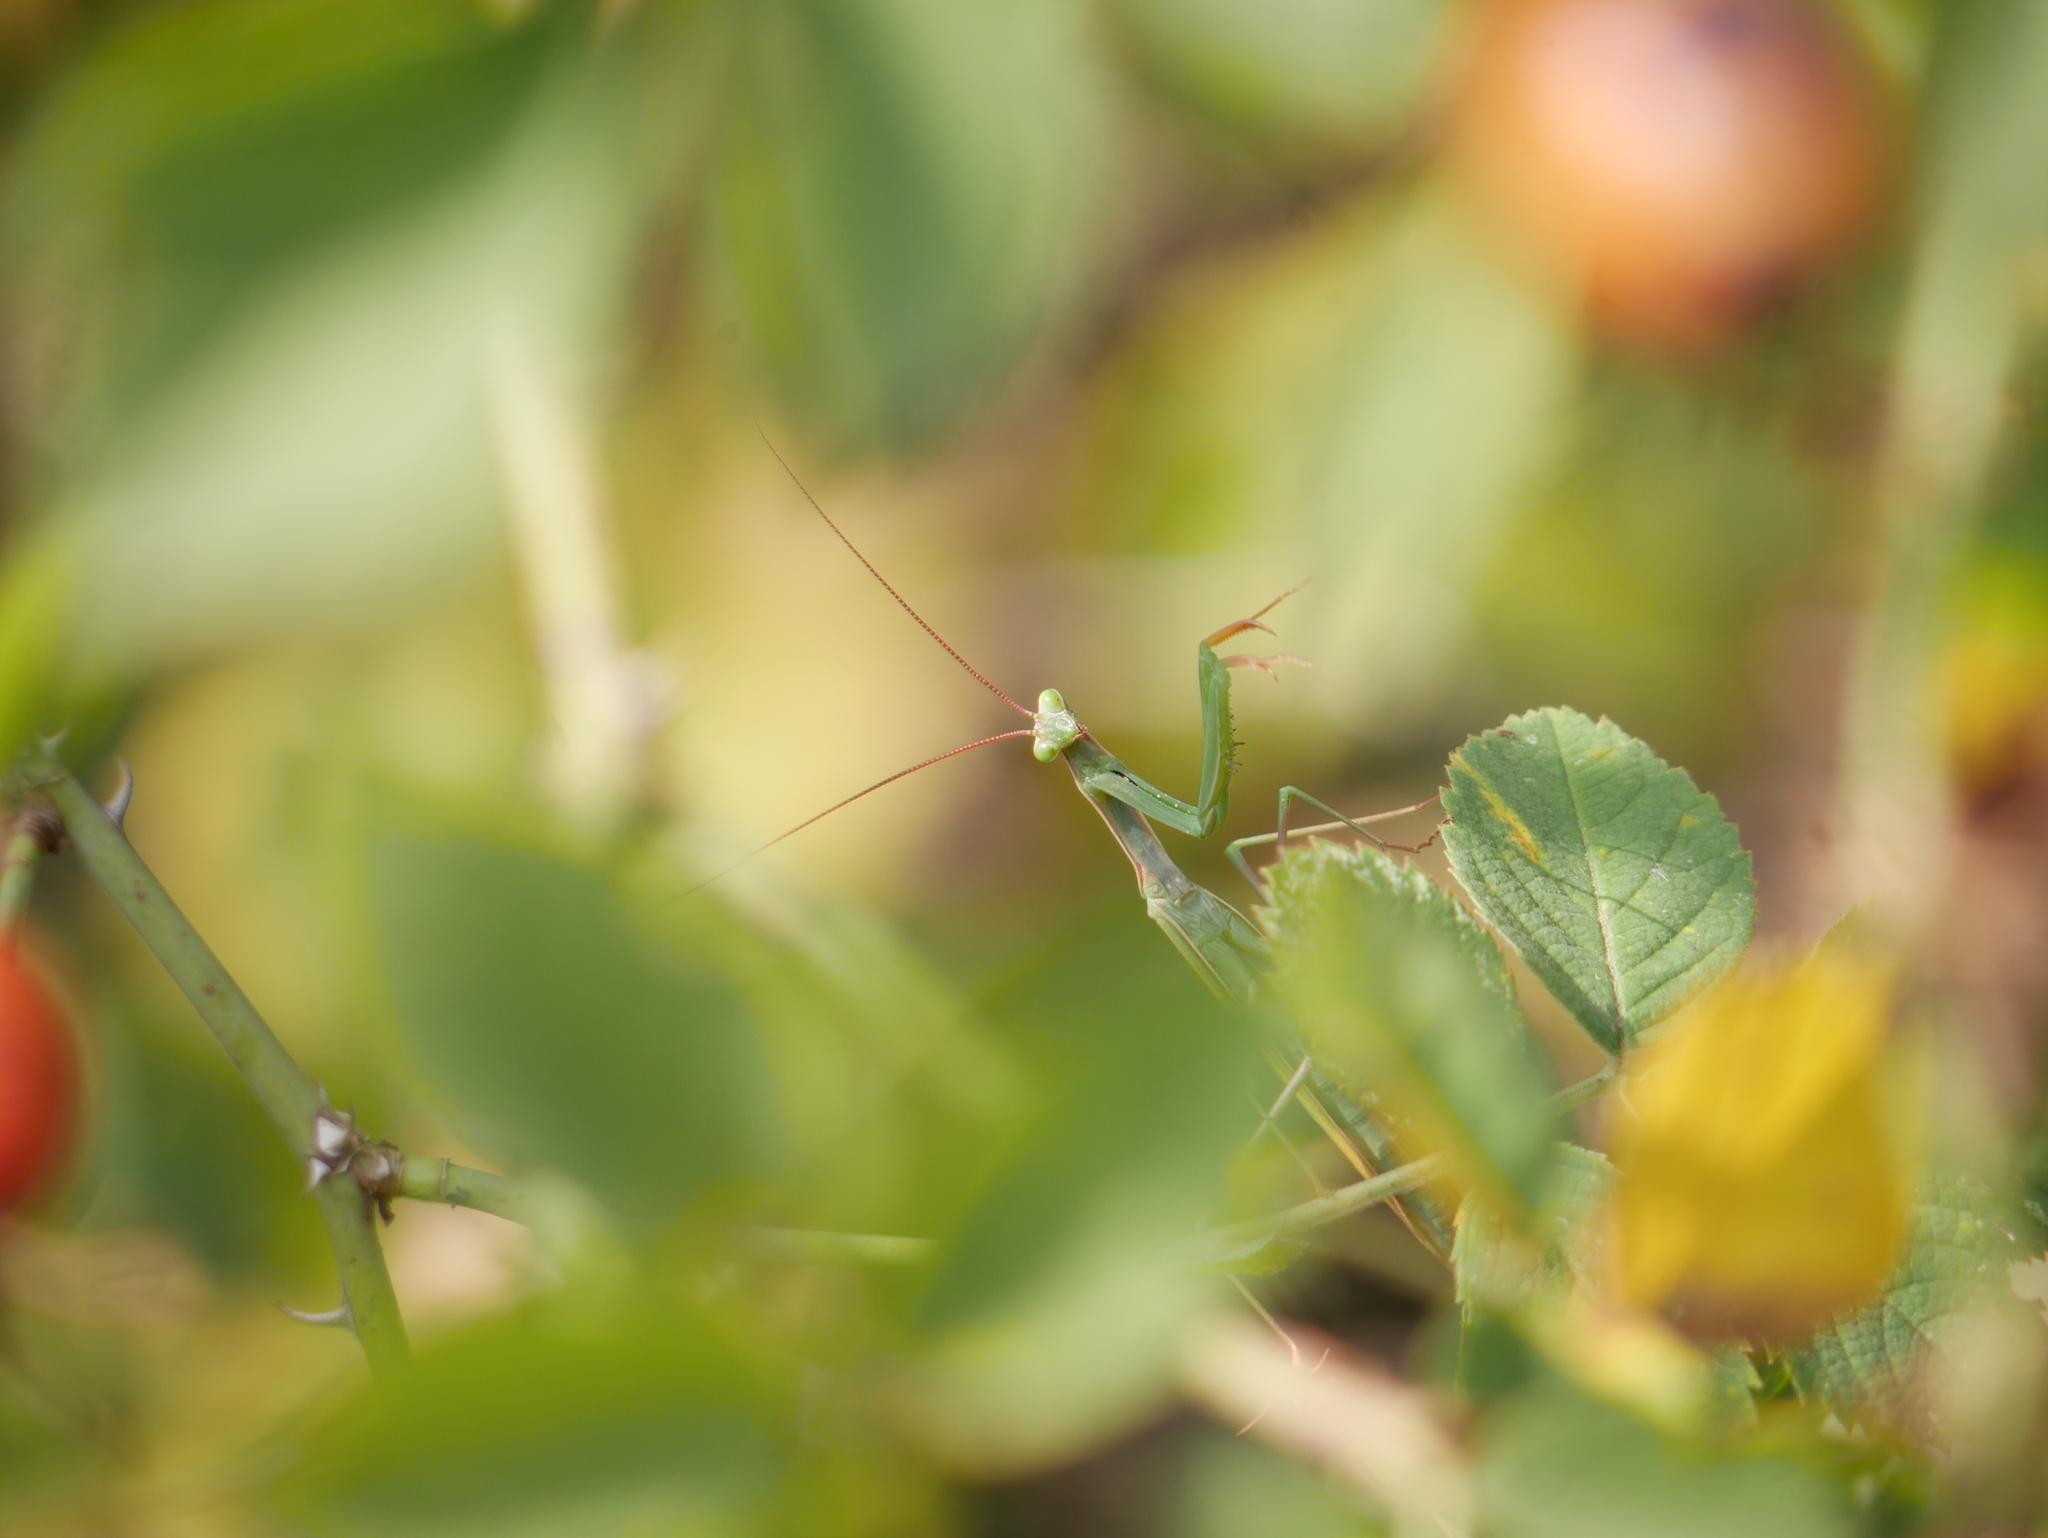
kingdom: Animalia
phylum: Arthropoda
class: Insecta
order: Mantodea
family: Mantidae
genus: Mantis
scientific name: Mantis religiosa
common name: Praying mantis
